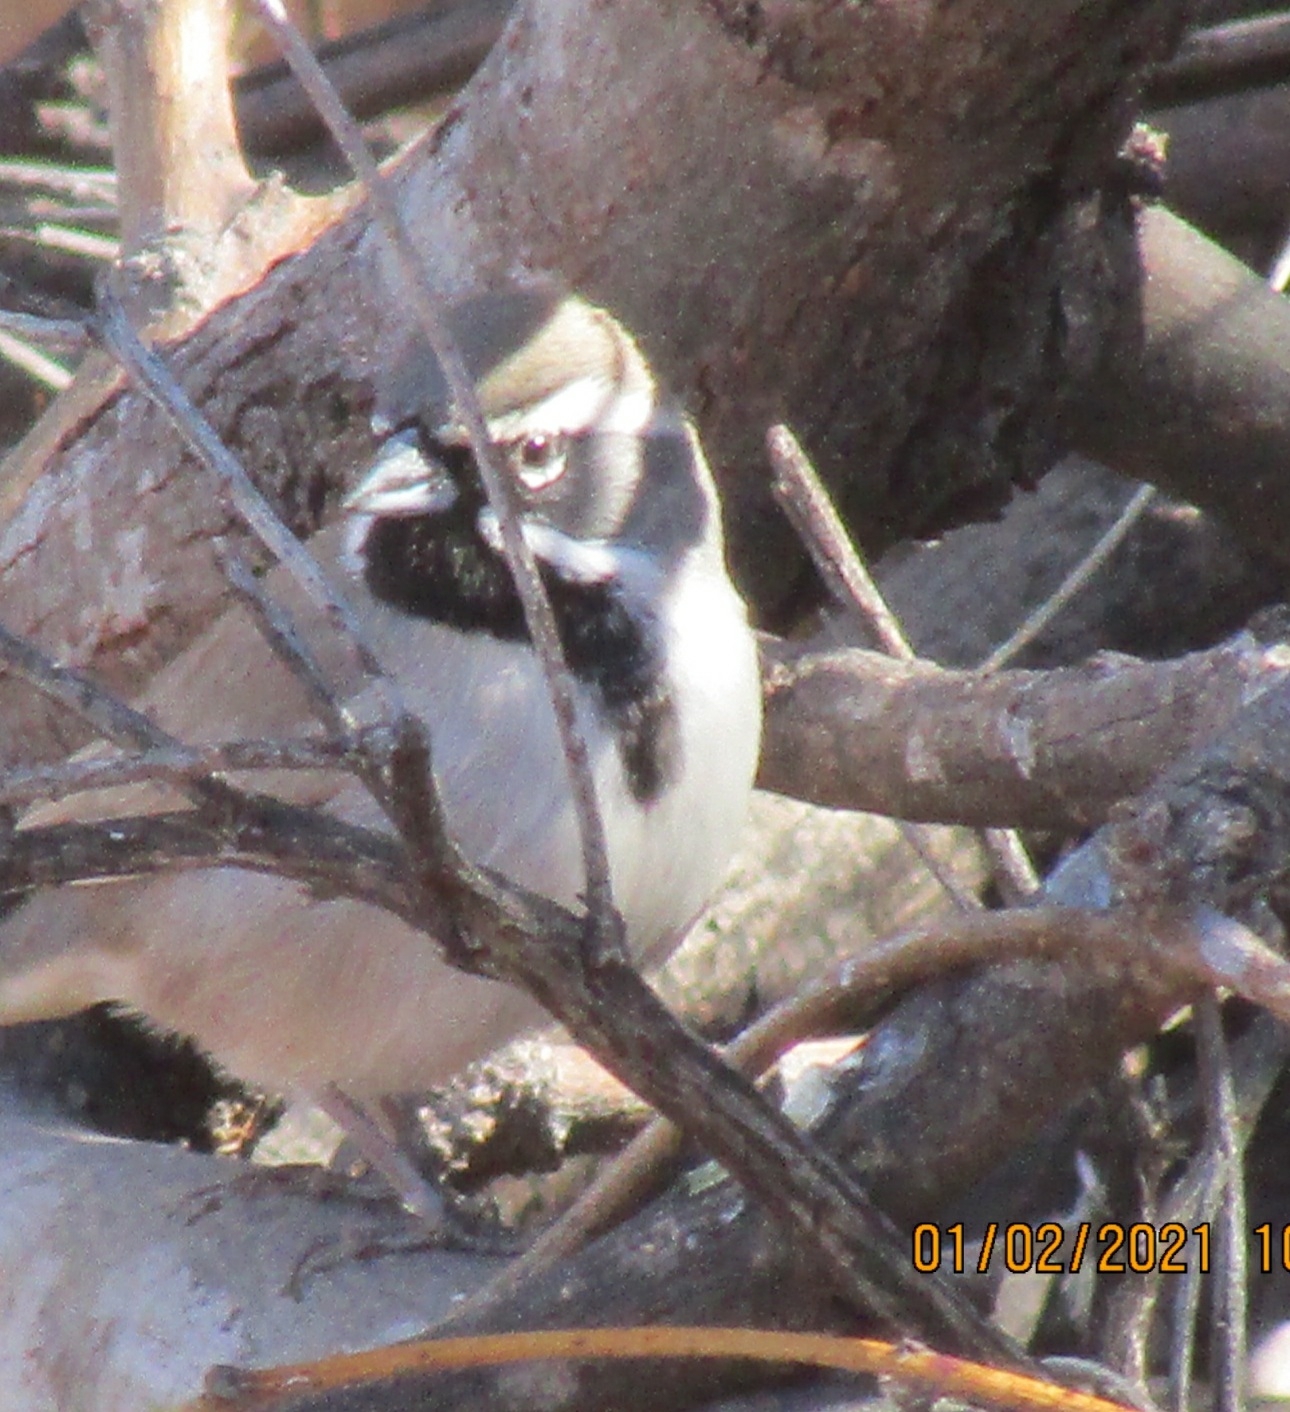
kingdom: Animalia
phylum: Chordata
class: Aves
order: Passeriformes
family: Passerellidae
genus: Amphispiza
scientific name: Amphispiza bilineata
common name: Black-throated sparrow
